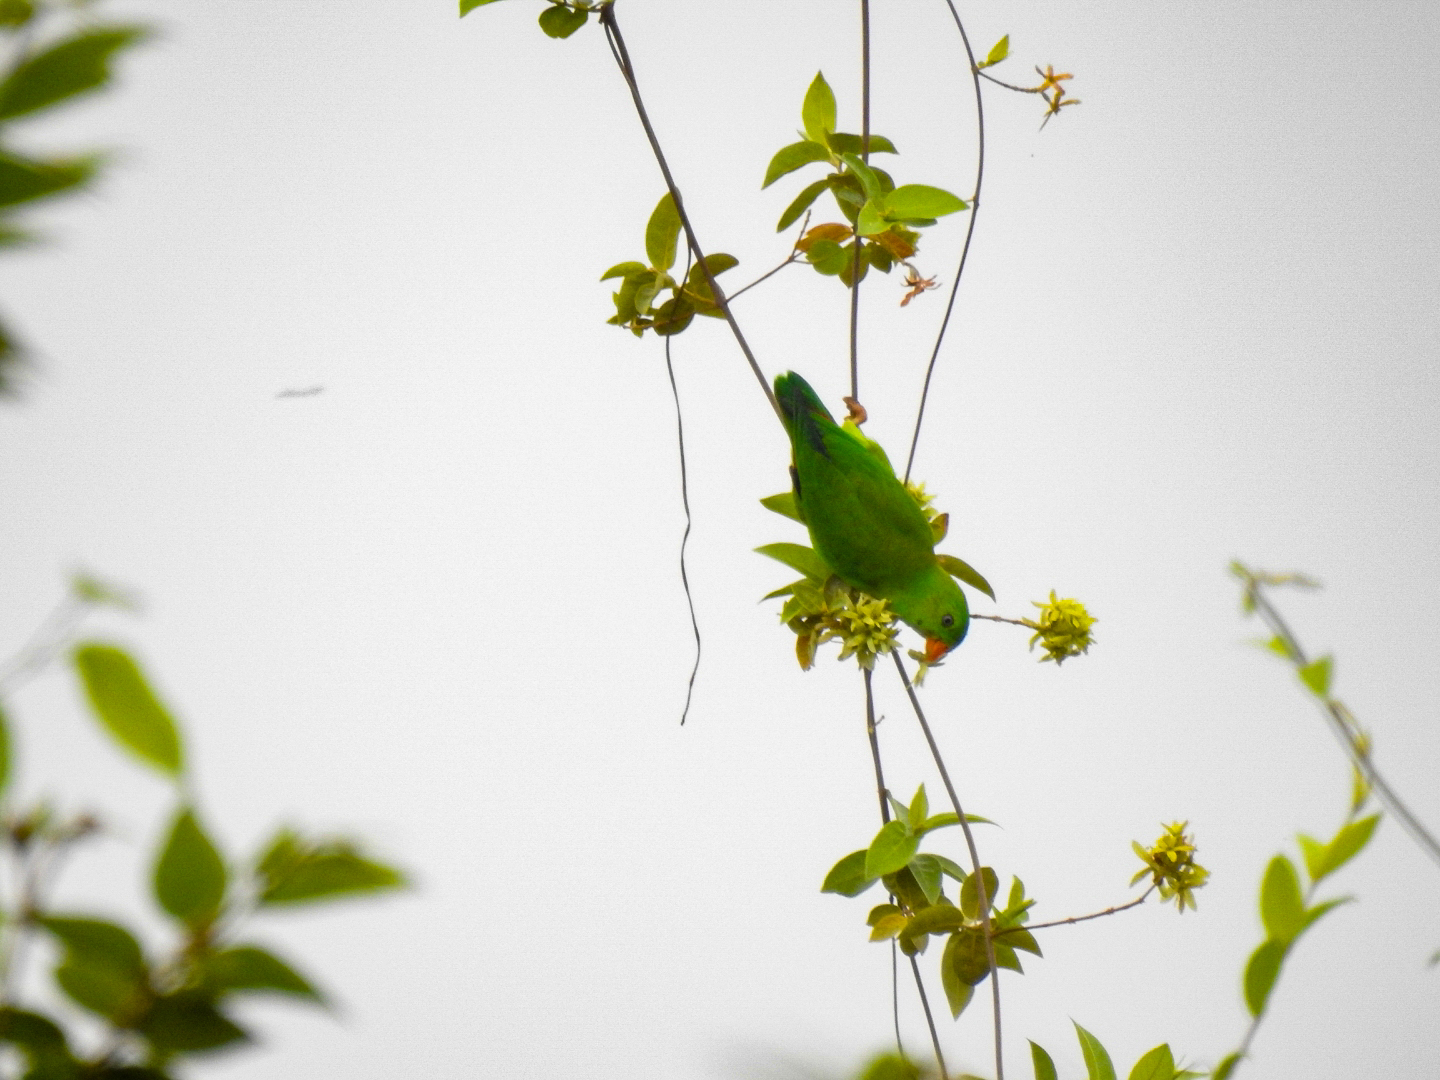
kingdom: Animalia
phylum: Chordata
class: Aves
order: Psittaciformes
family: Psittacidae
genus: Loriculus
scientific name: Loriculus vernalis
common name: Vernal hanging parrot
